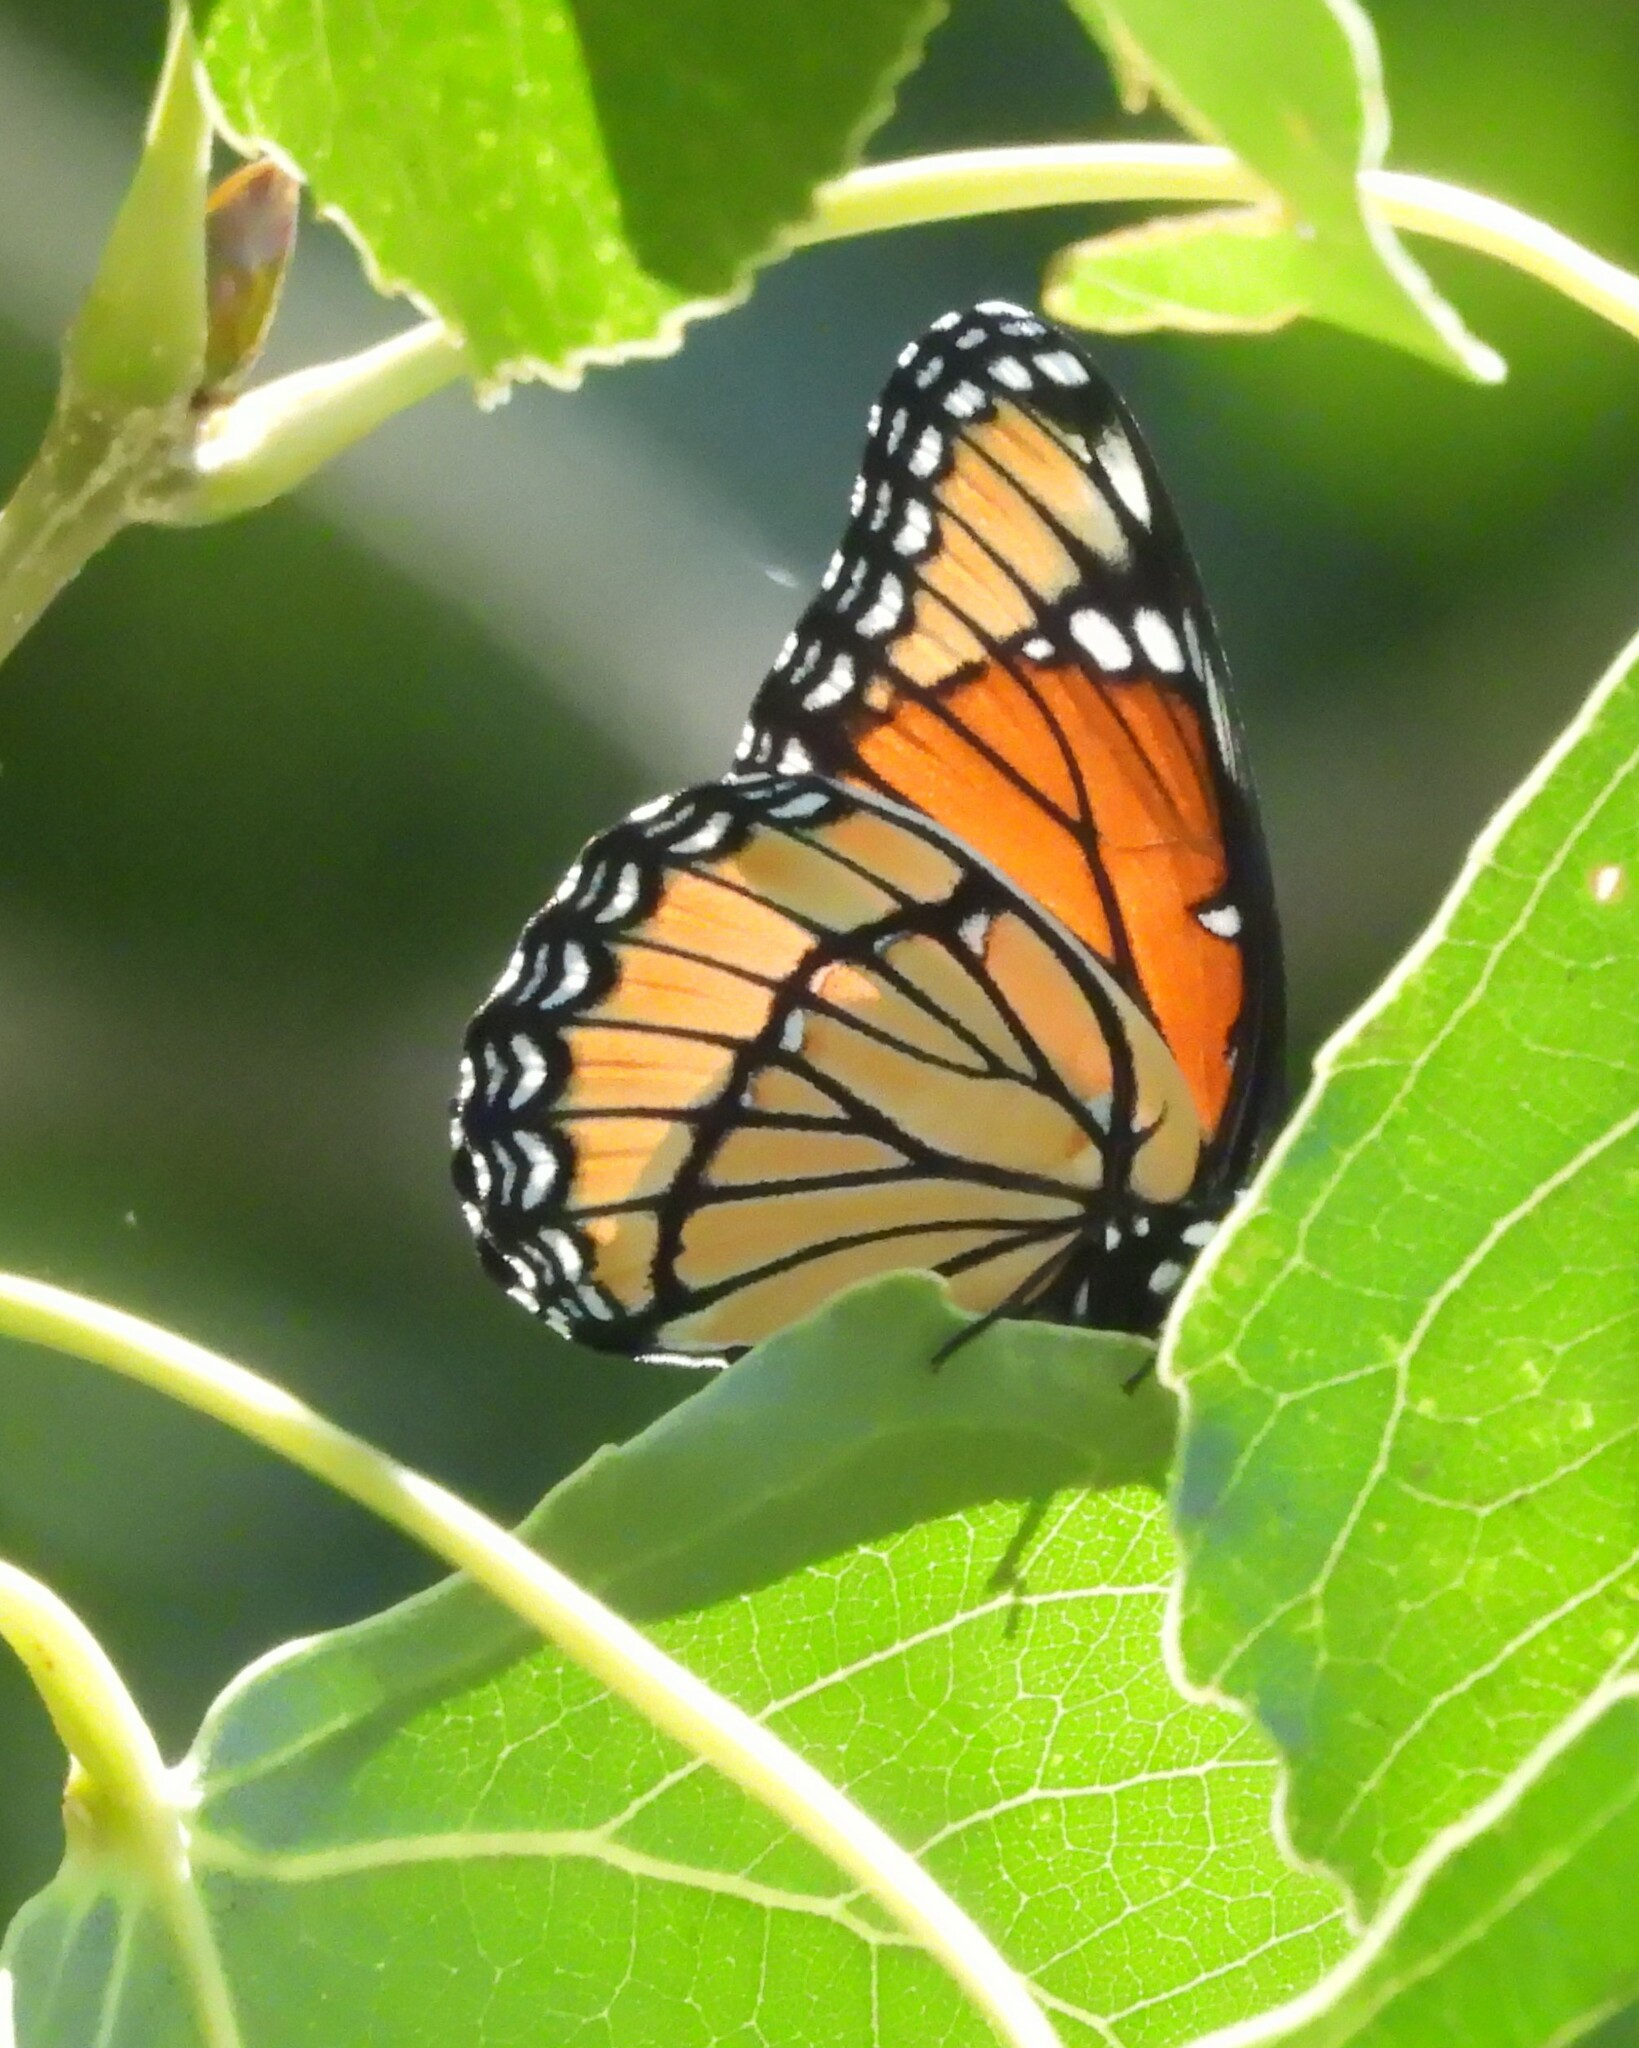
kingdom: Animalia
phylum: Arthropoda
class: Insecta
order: Lepidoptera
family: Nymphalidae
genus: Limenitis
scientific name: Limenitis archippus
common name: Viceroy
